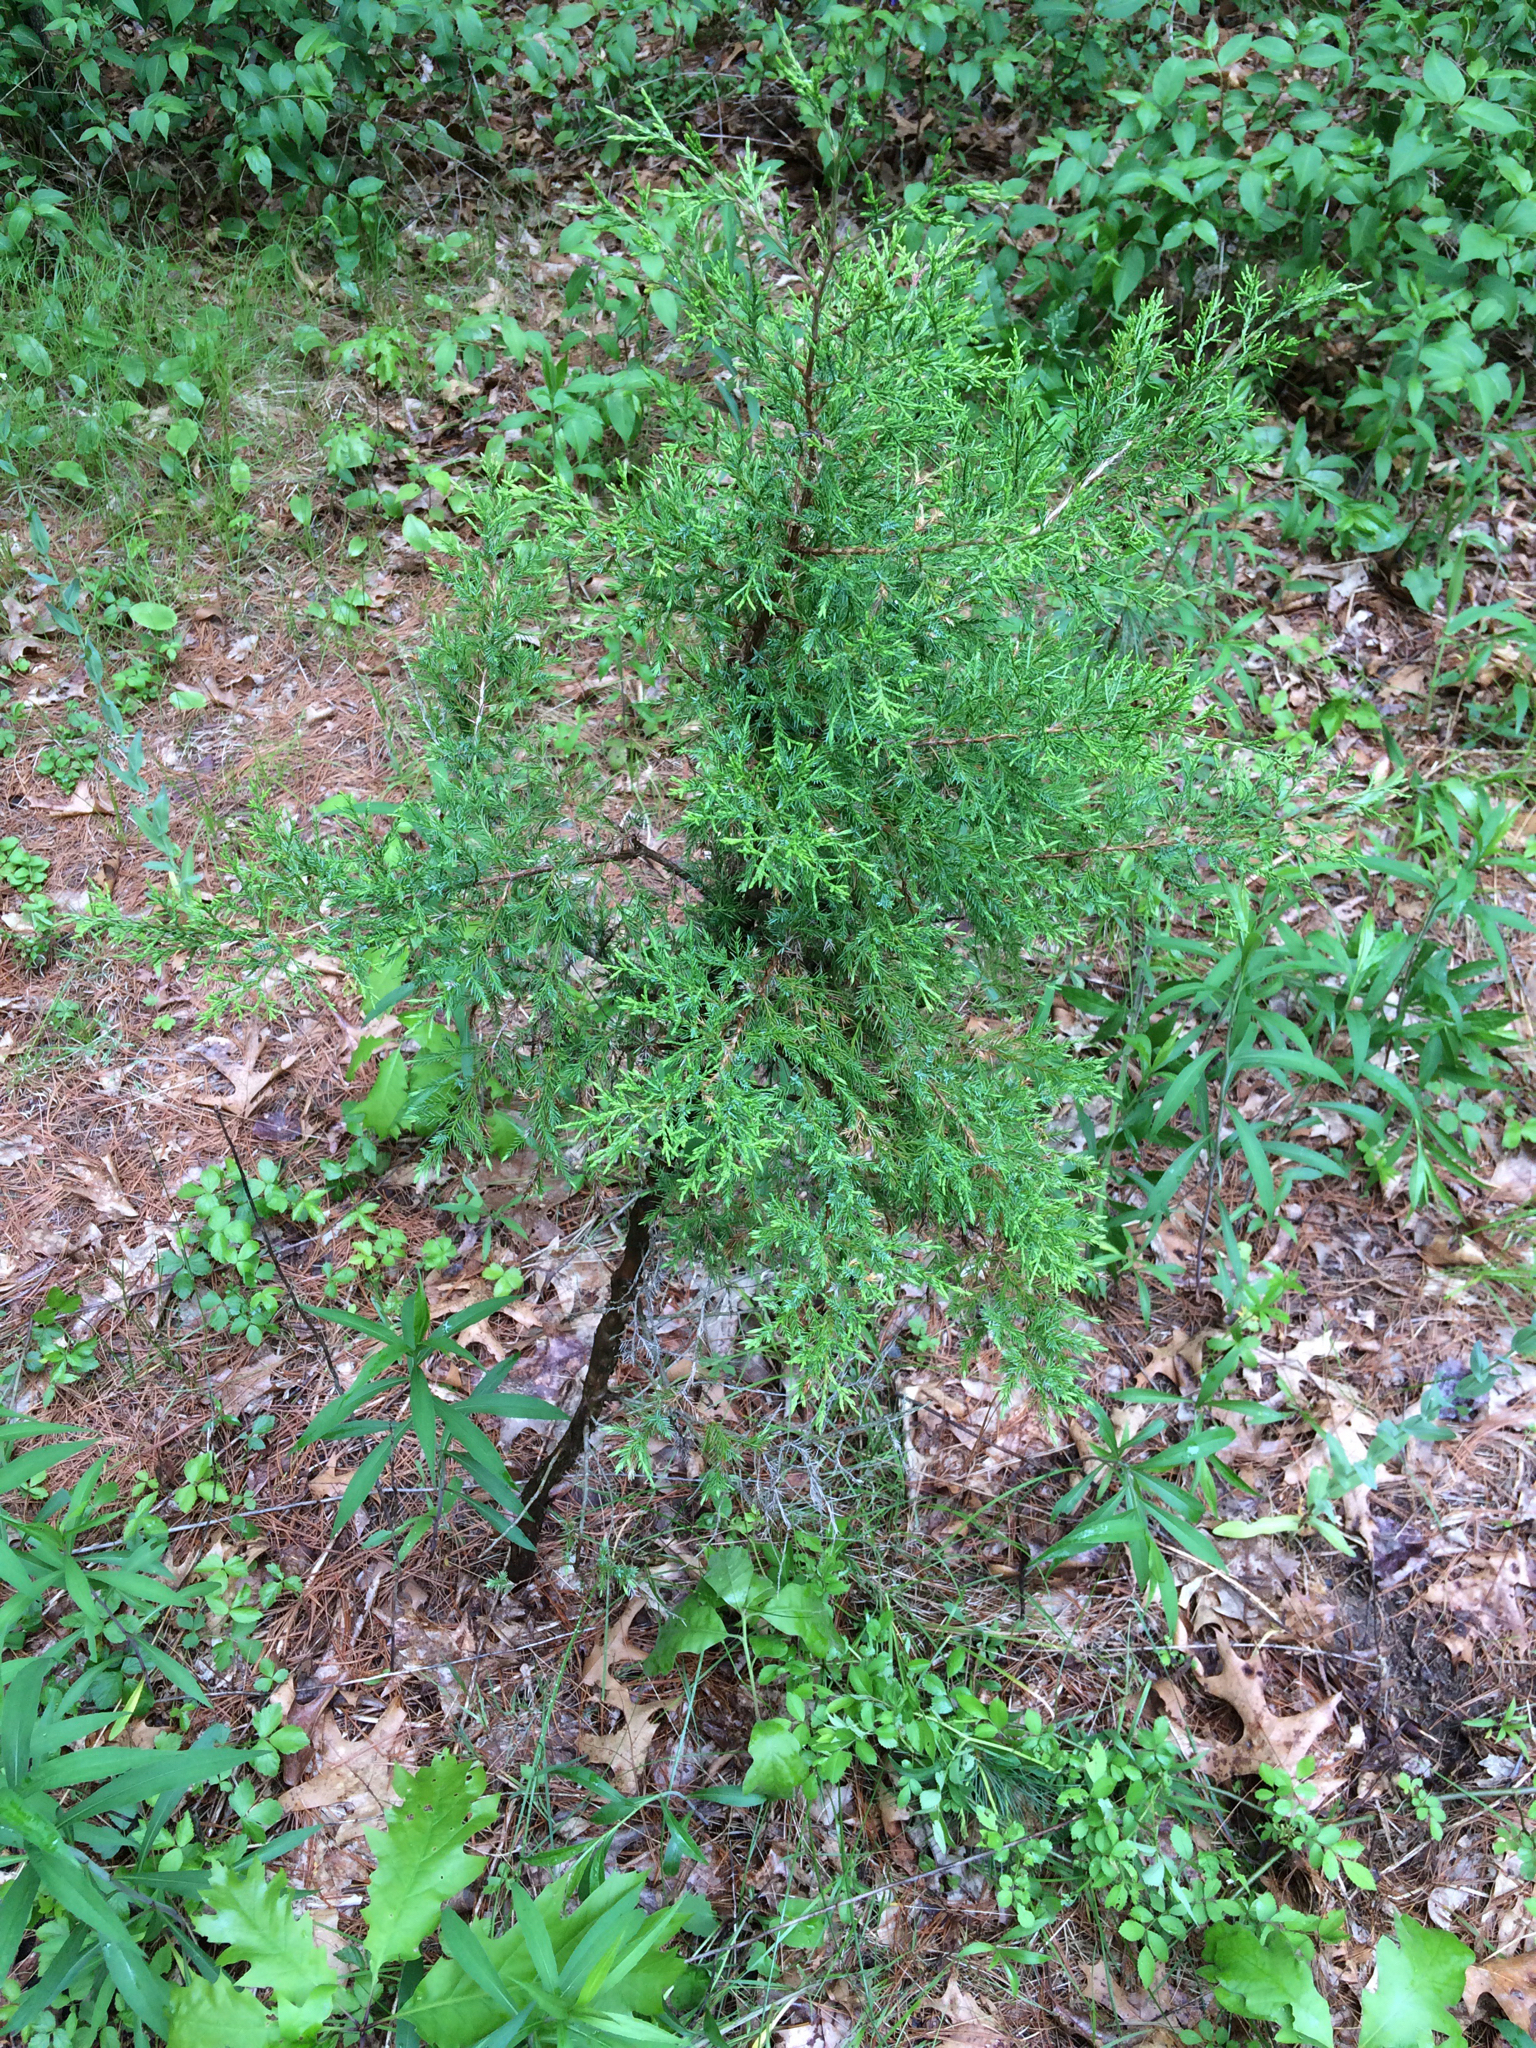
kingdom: Plantae
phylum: Tracheophyta
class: Pinopsida
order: Pinales
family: Cupressaceae
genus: Juniperus
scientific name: Juniperus virginiana
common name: Red juniper
